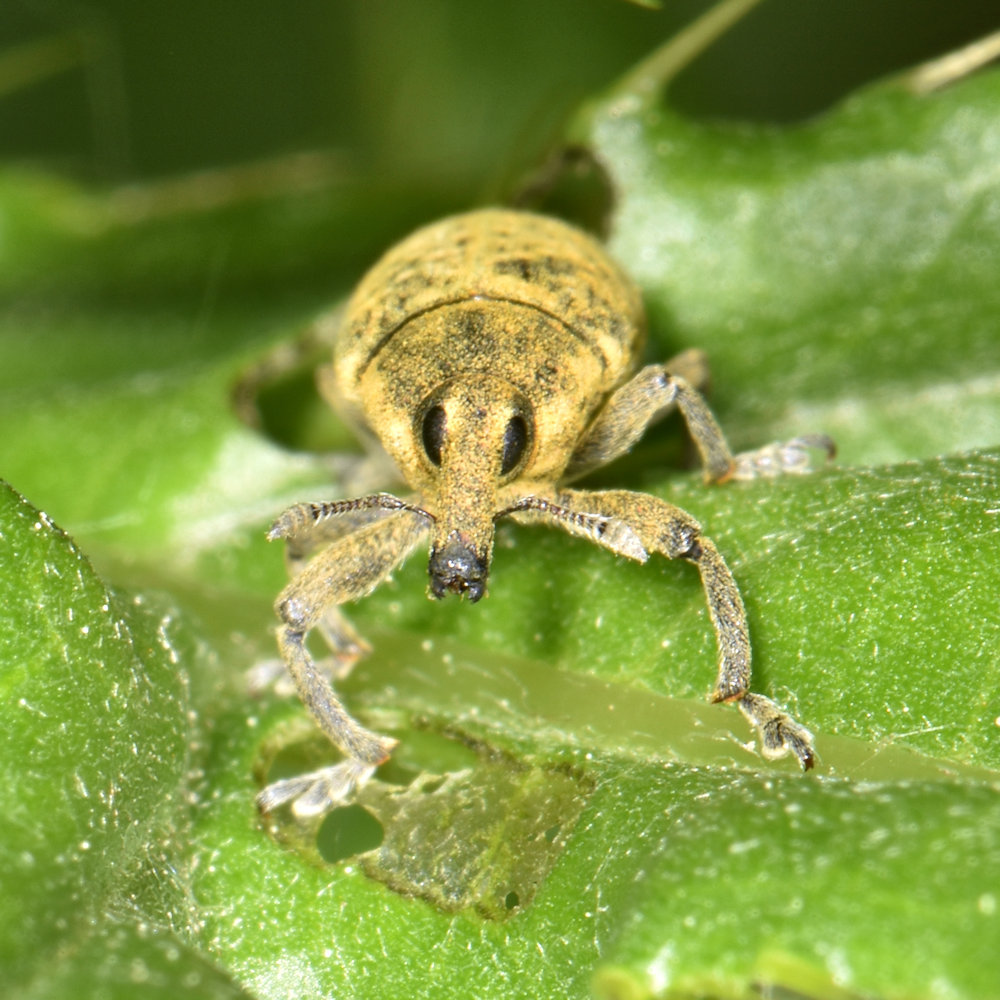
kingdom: Animalia
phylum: Arthropoda
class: Insecta
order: Coleoptera
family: Curculionidae
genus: Larinus
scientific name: Larinus carlinae
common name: Weevil
